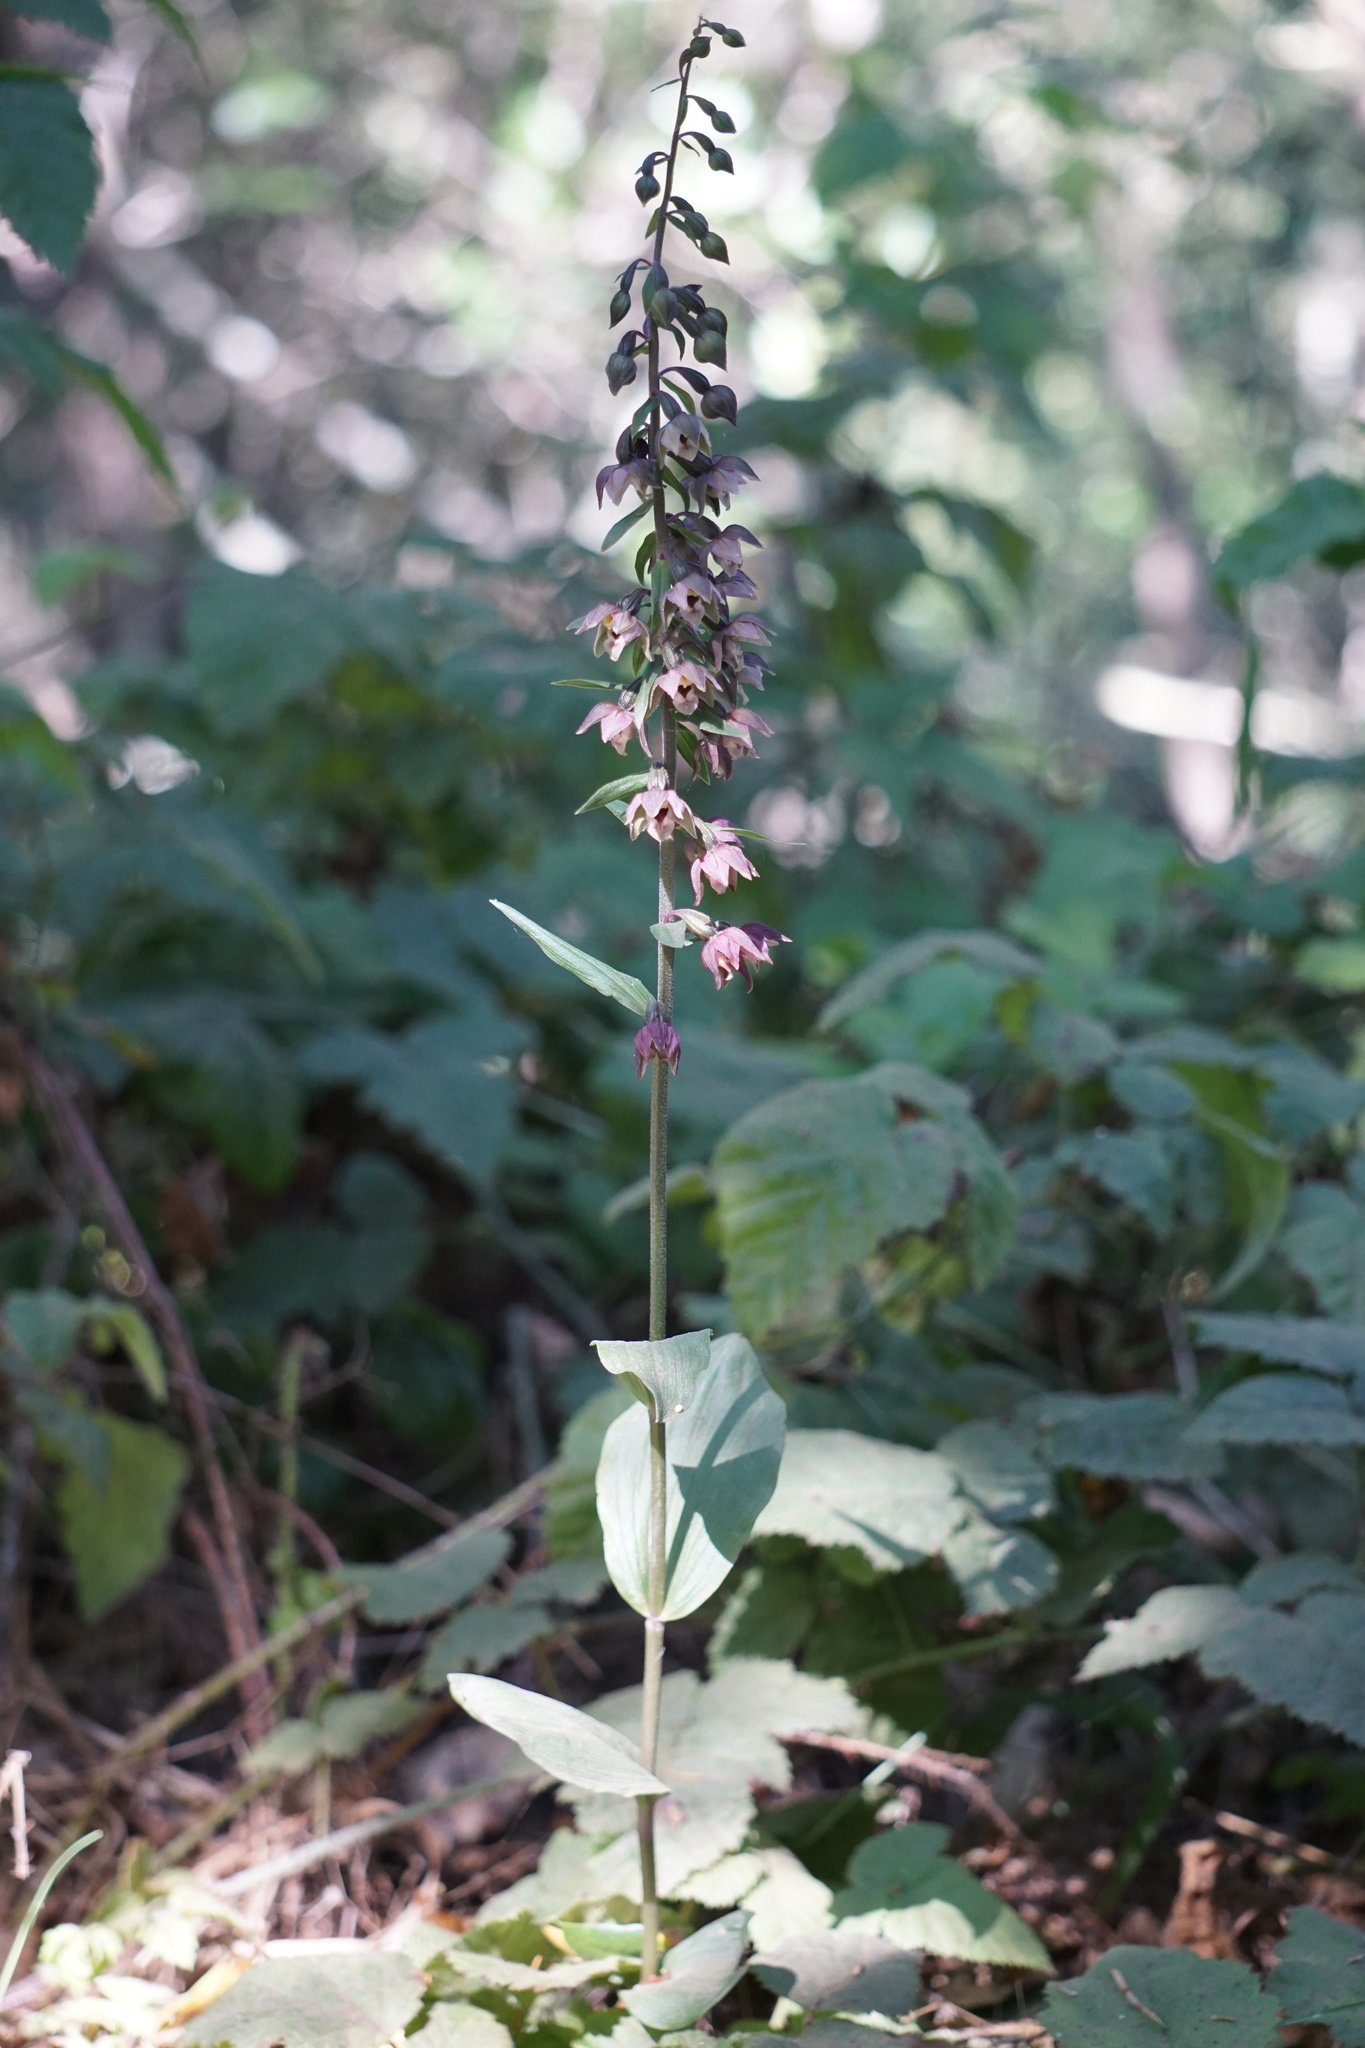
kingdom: Plantae
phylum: Tracheophyta
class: Liliopsida
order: Asparagales
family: Orchidaceae
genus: Epipactis
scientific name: Epipactis helleborine
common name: Broad-leaved helleborine
